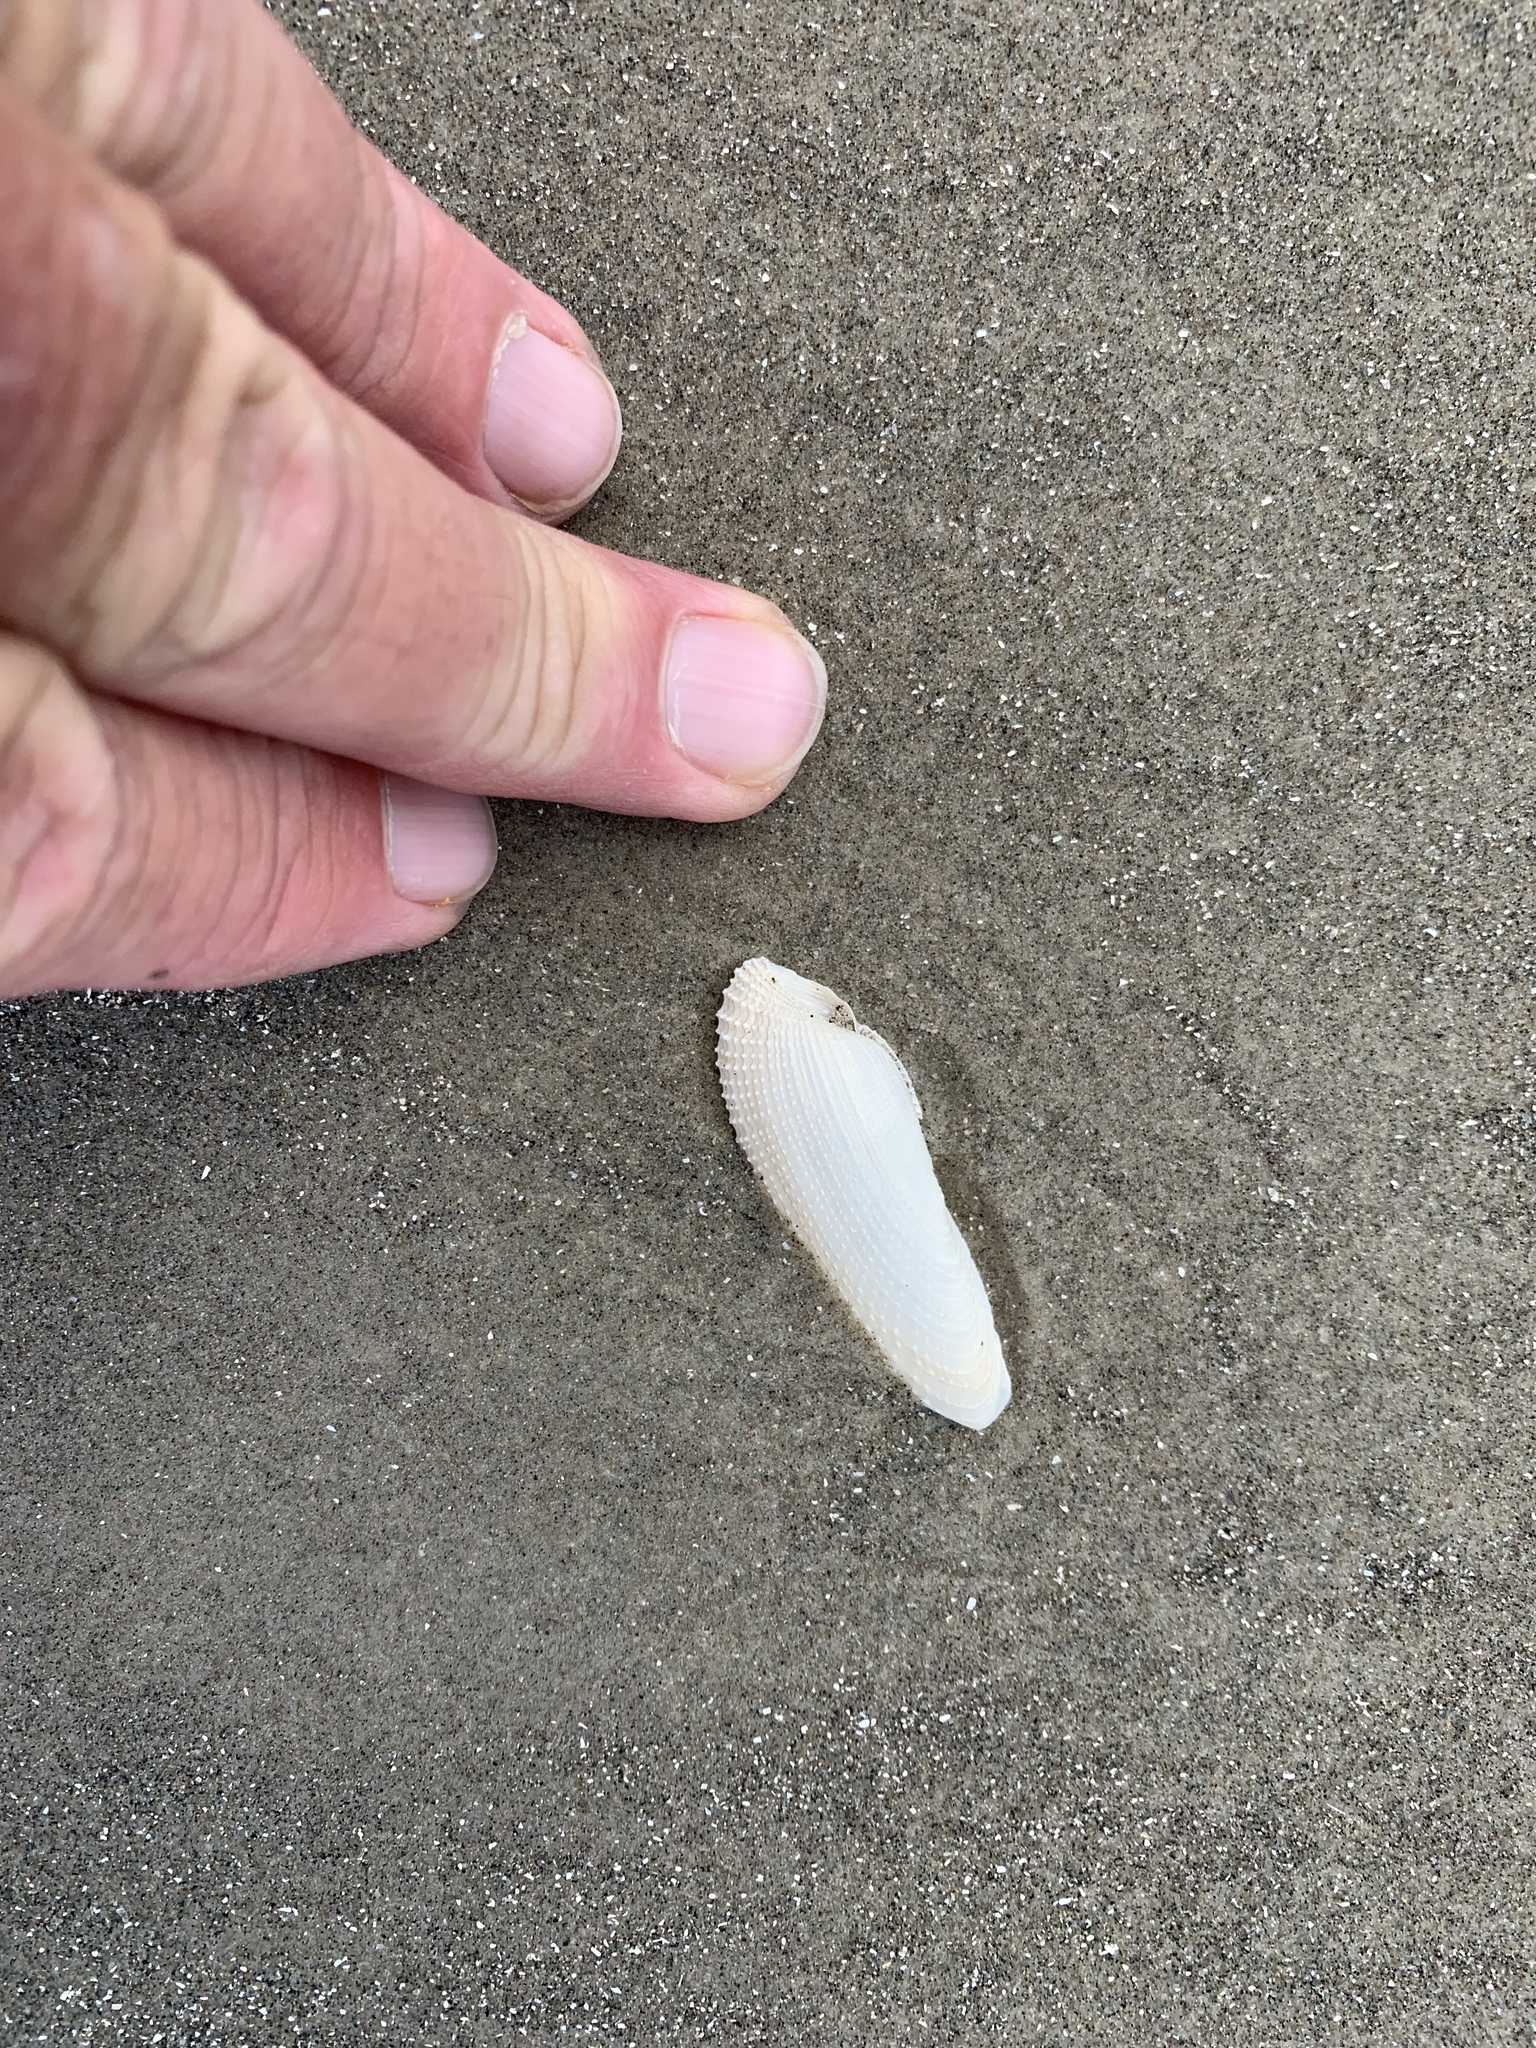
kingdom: Animalia
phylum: Mollusca
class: Bivalvia
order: Myida
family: Pholadidae
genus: Pholas
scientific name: Pholas campechiensis
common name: Campeche angel wing
